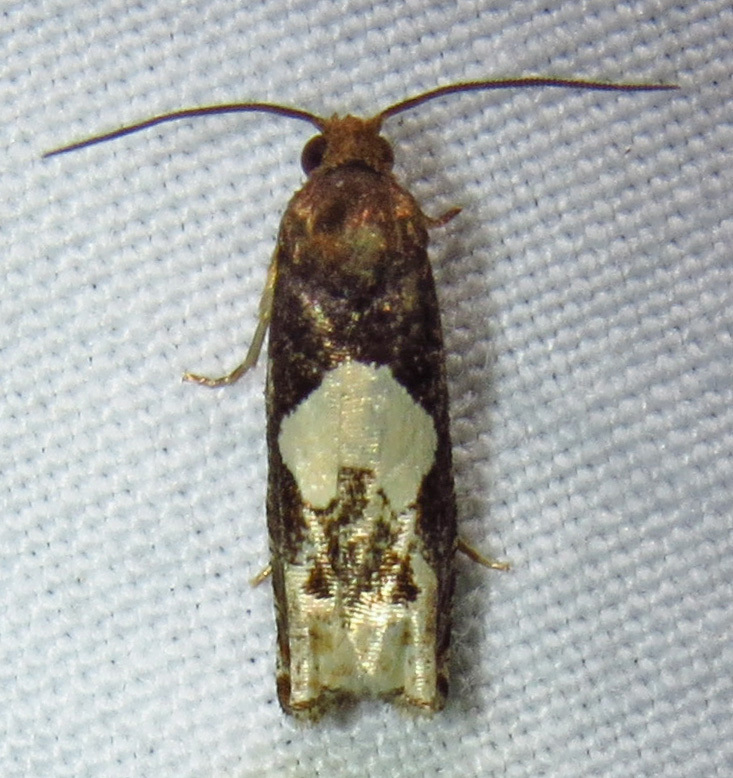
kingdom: Animalia
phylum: Arthropoda
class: Insecta
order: Lepidoptera
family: Tortricidae
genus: Epiblema
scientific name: Epiblema otiosana
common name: Bidens borer moth
